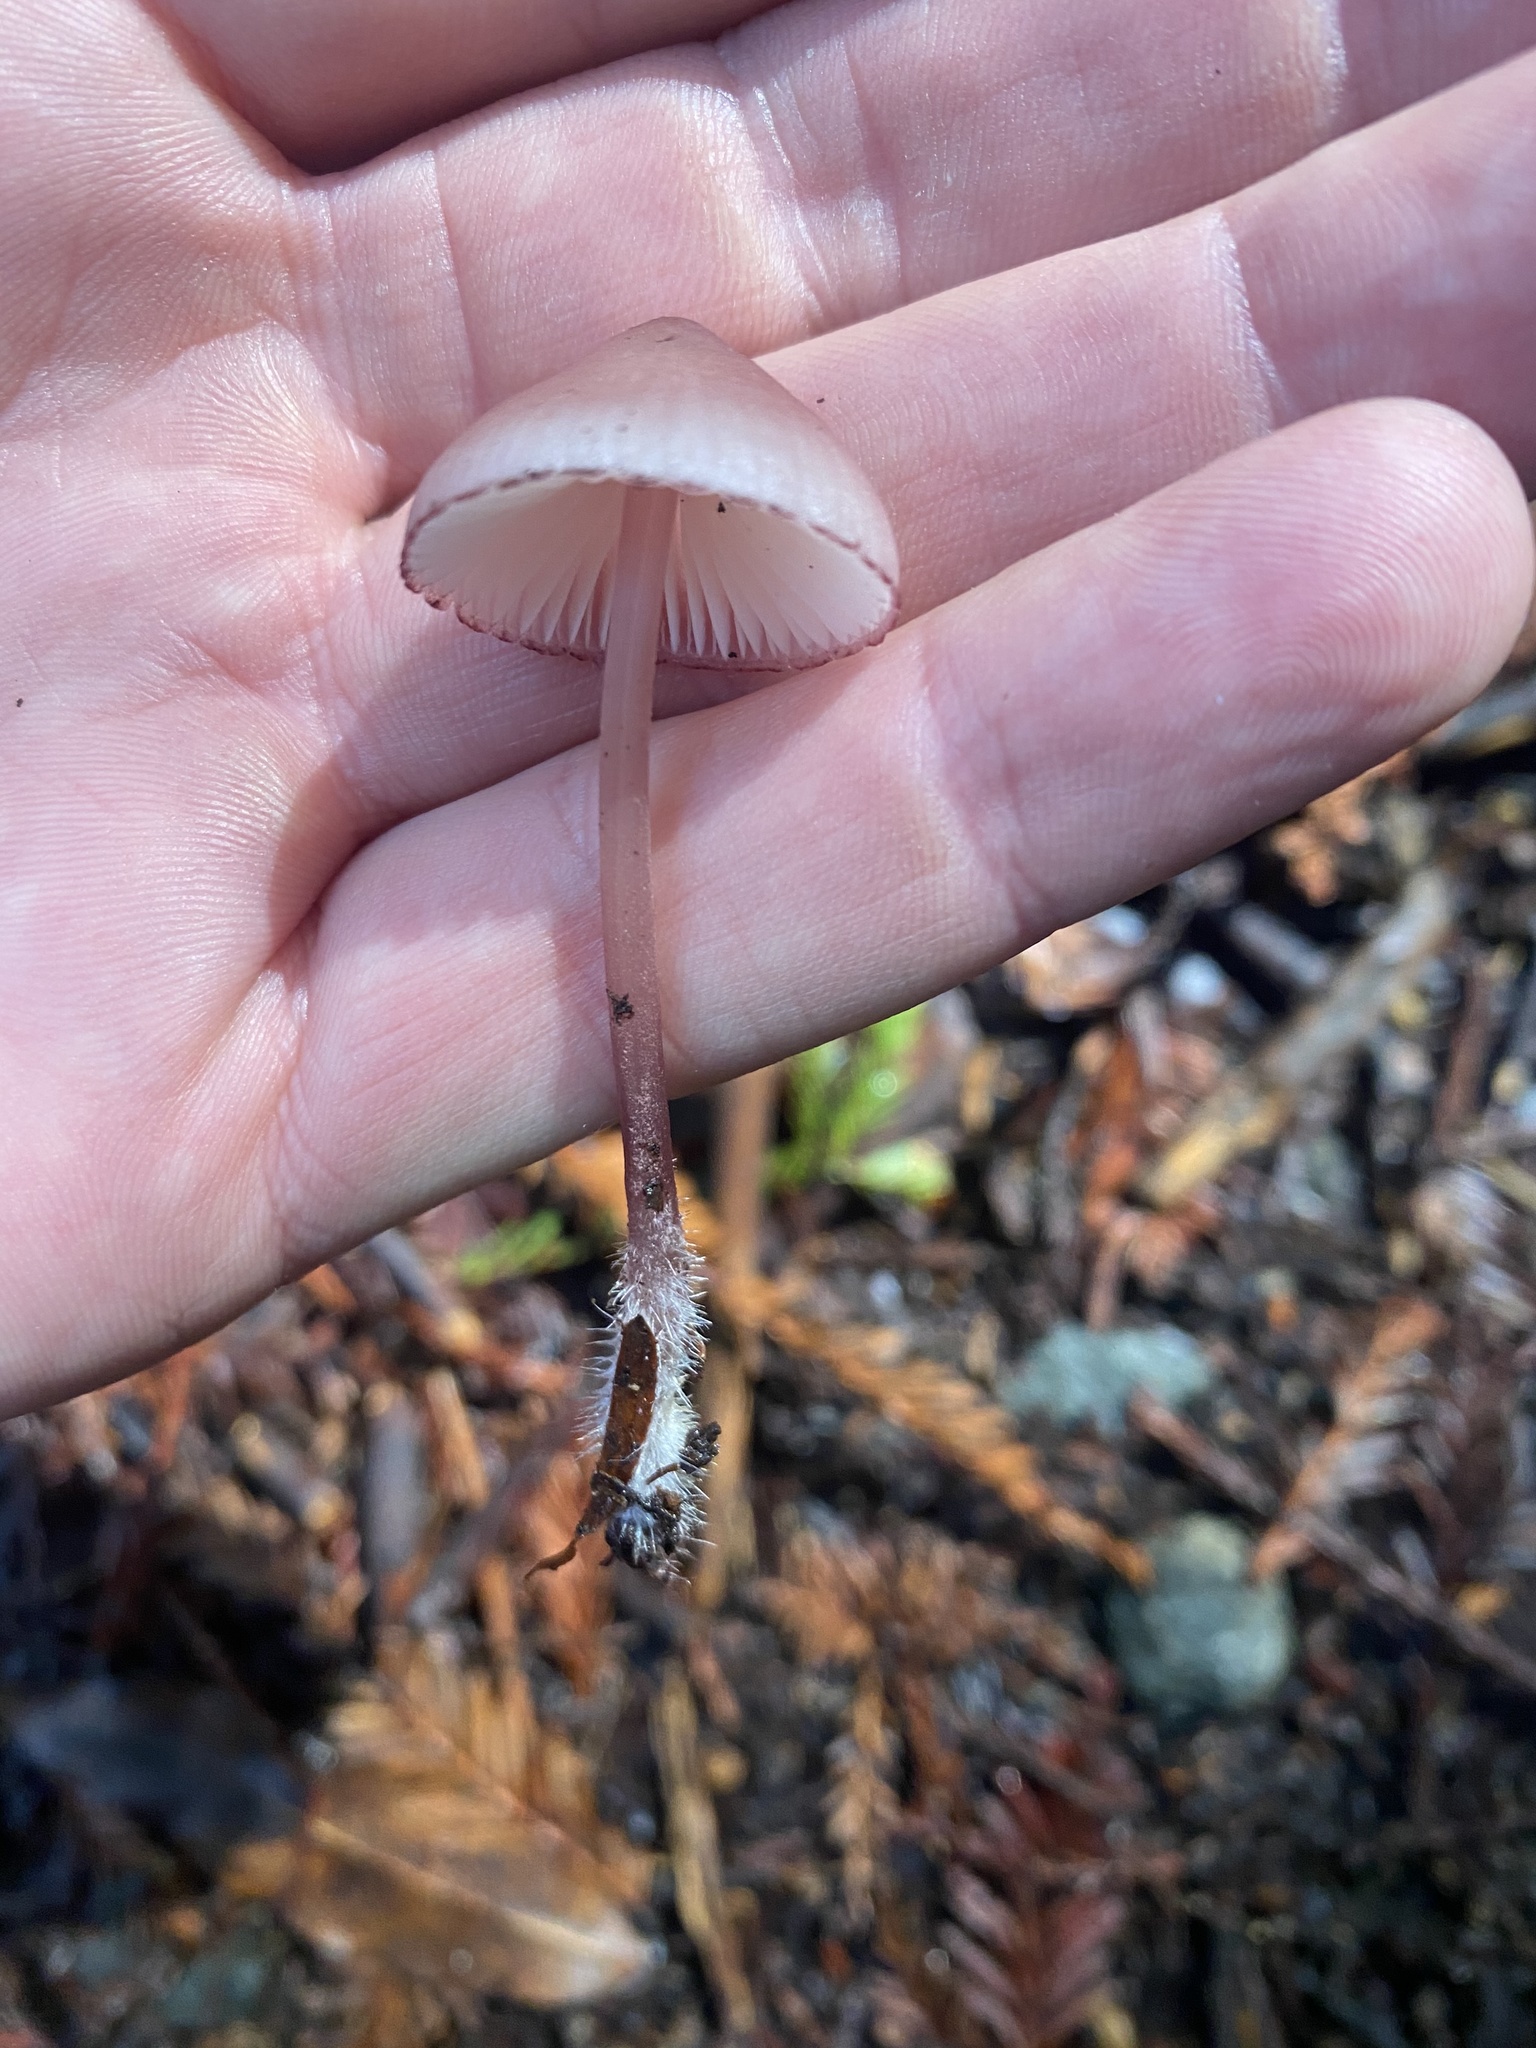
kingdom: Fungi
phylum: Basidiomycota
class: Agaricomycetes
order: Agaricales
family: Mycenaceae
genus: Mycena
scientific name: Mycena haematopus
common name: Burgundydrop bonnet
